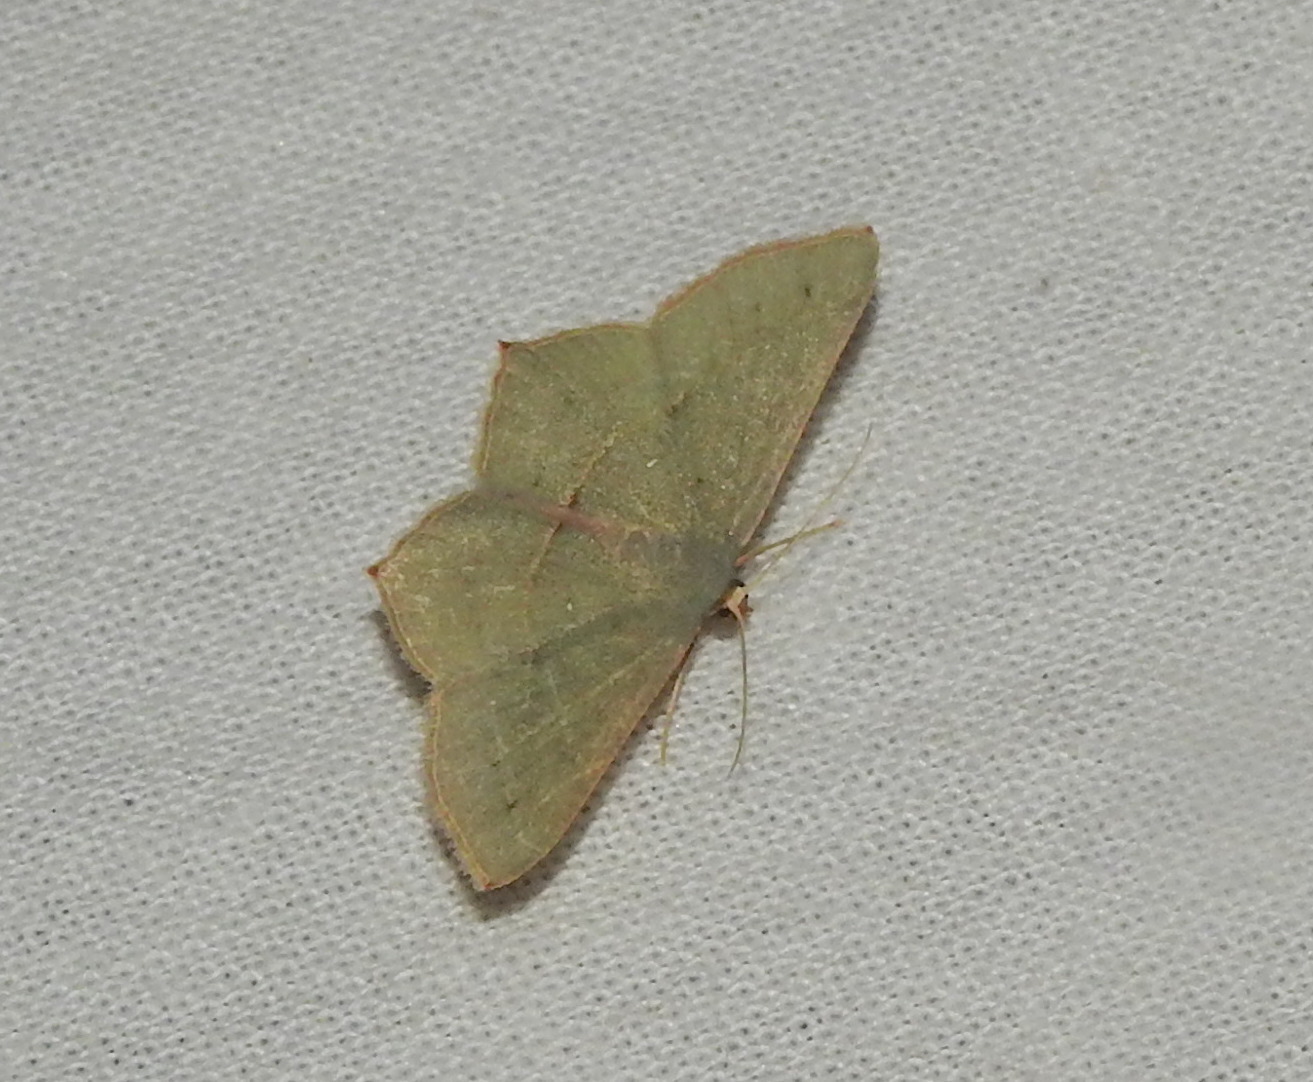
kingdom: Animalia
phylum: Arthropoda
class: Insecta
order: Lepidoptera
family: Geometridae
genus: Traminda
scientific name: Traminda mundissima
